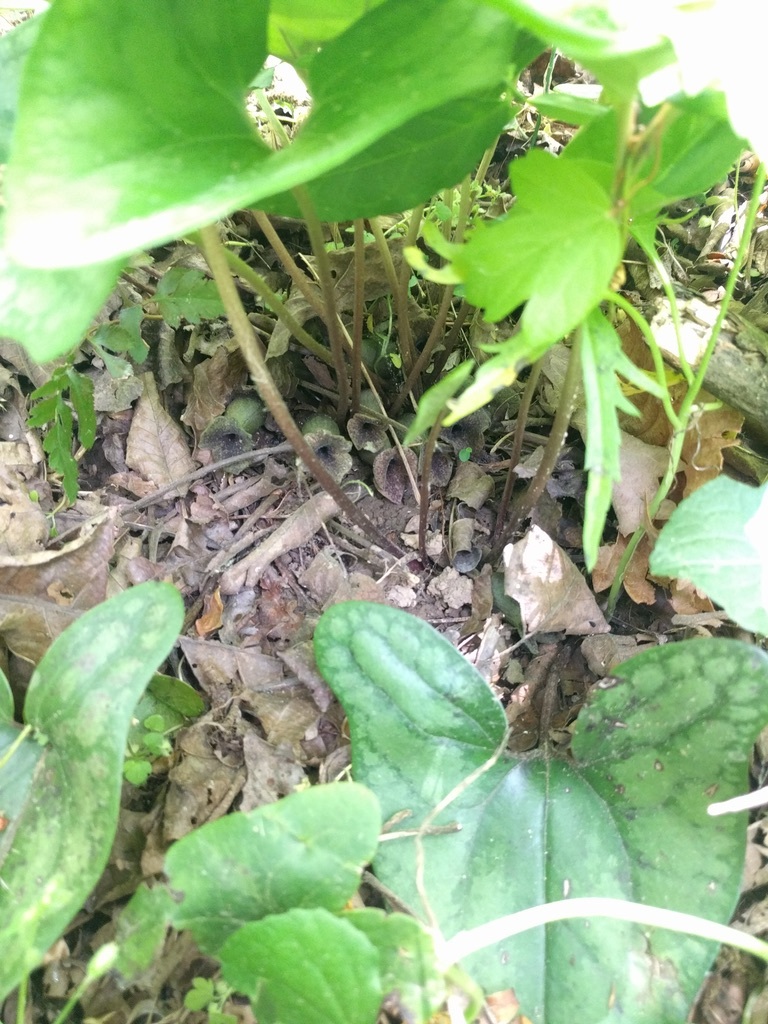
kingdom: Plantae
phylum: Tracheophyta
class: Magnoliopsida
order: Piperales
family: Aristolochiaceae
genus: Hexastylis
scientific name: Hexastylis arifolia
